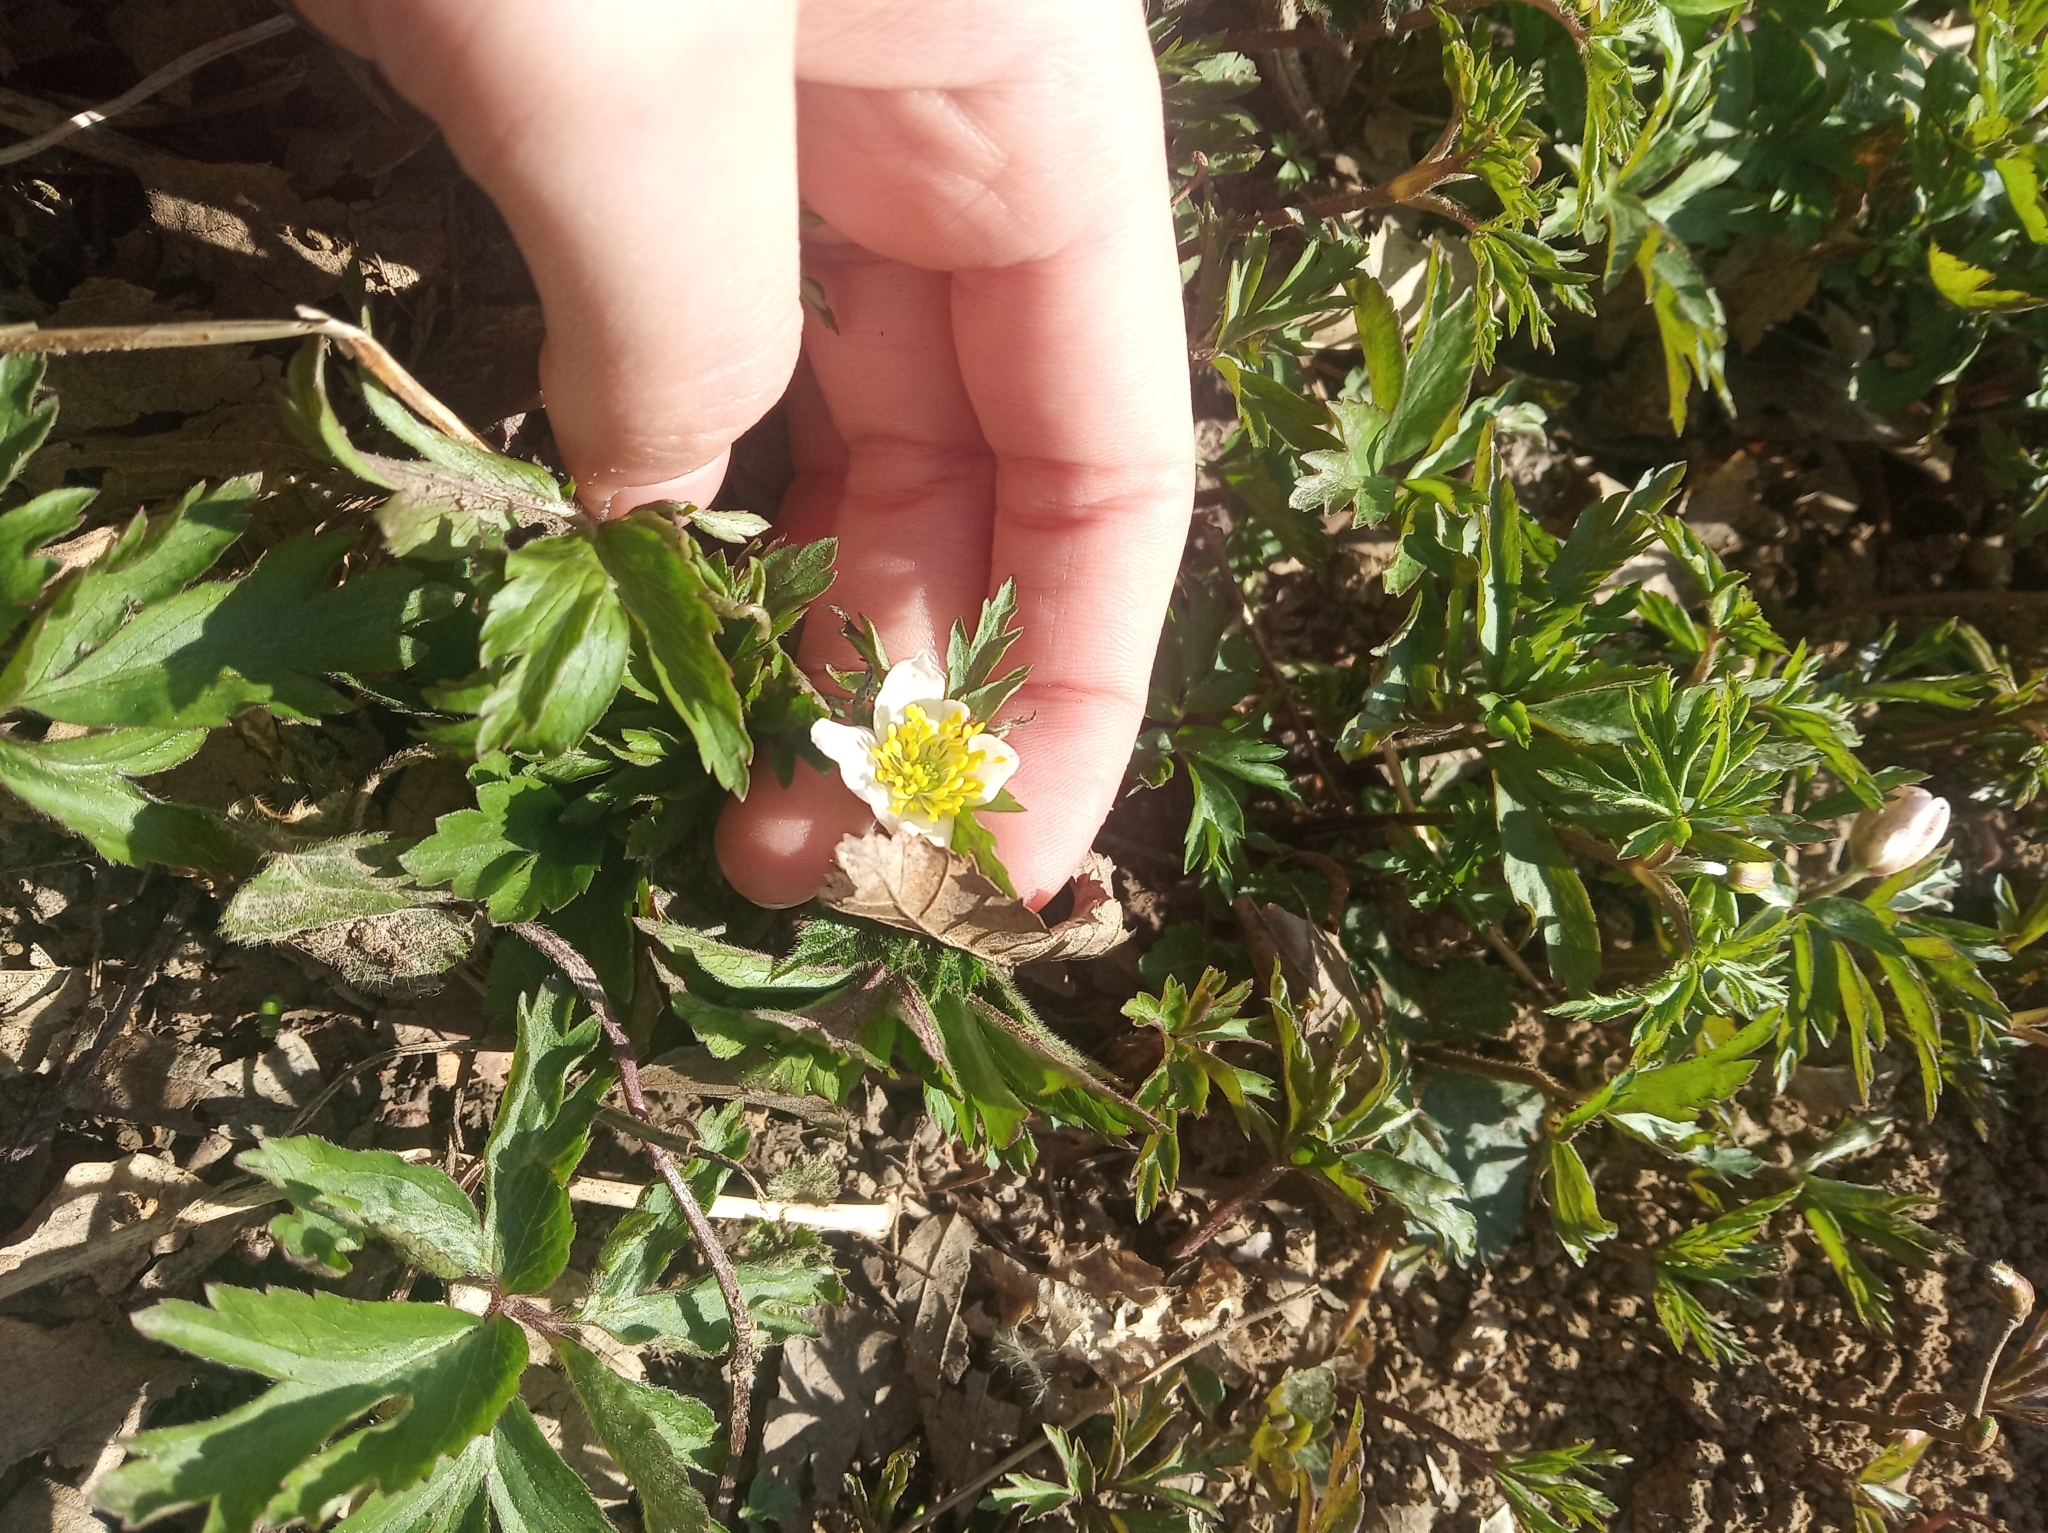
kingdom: Plantae
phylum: Tracheophyta
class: Magnoliopsida
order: Ranunculales
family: Ranunculaceae
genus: Anemone
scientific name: Anemone nemorosa
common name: Wood anemone
